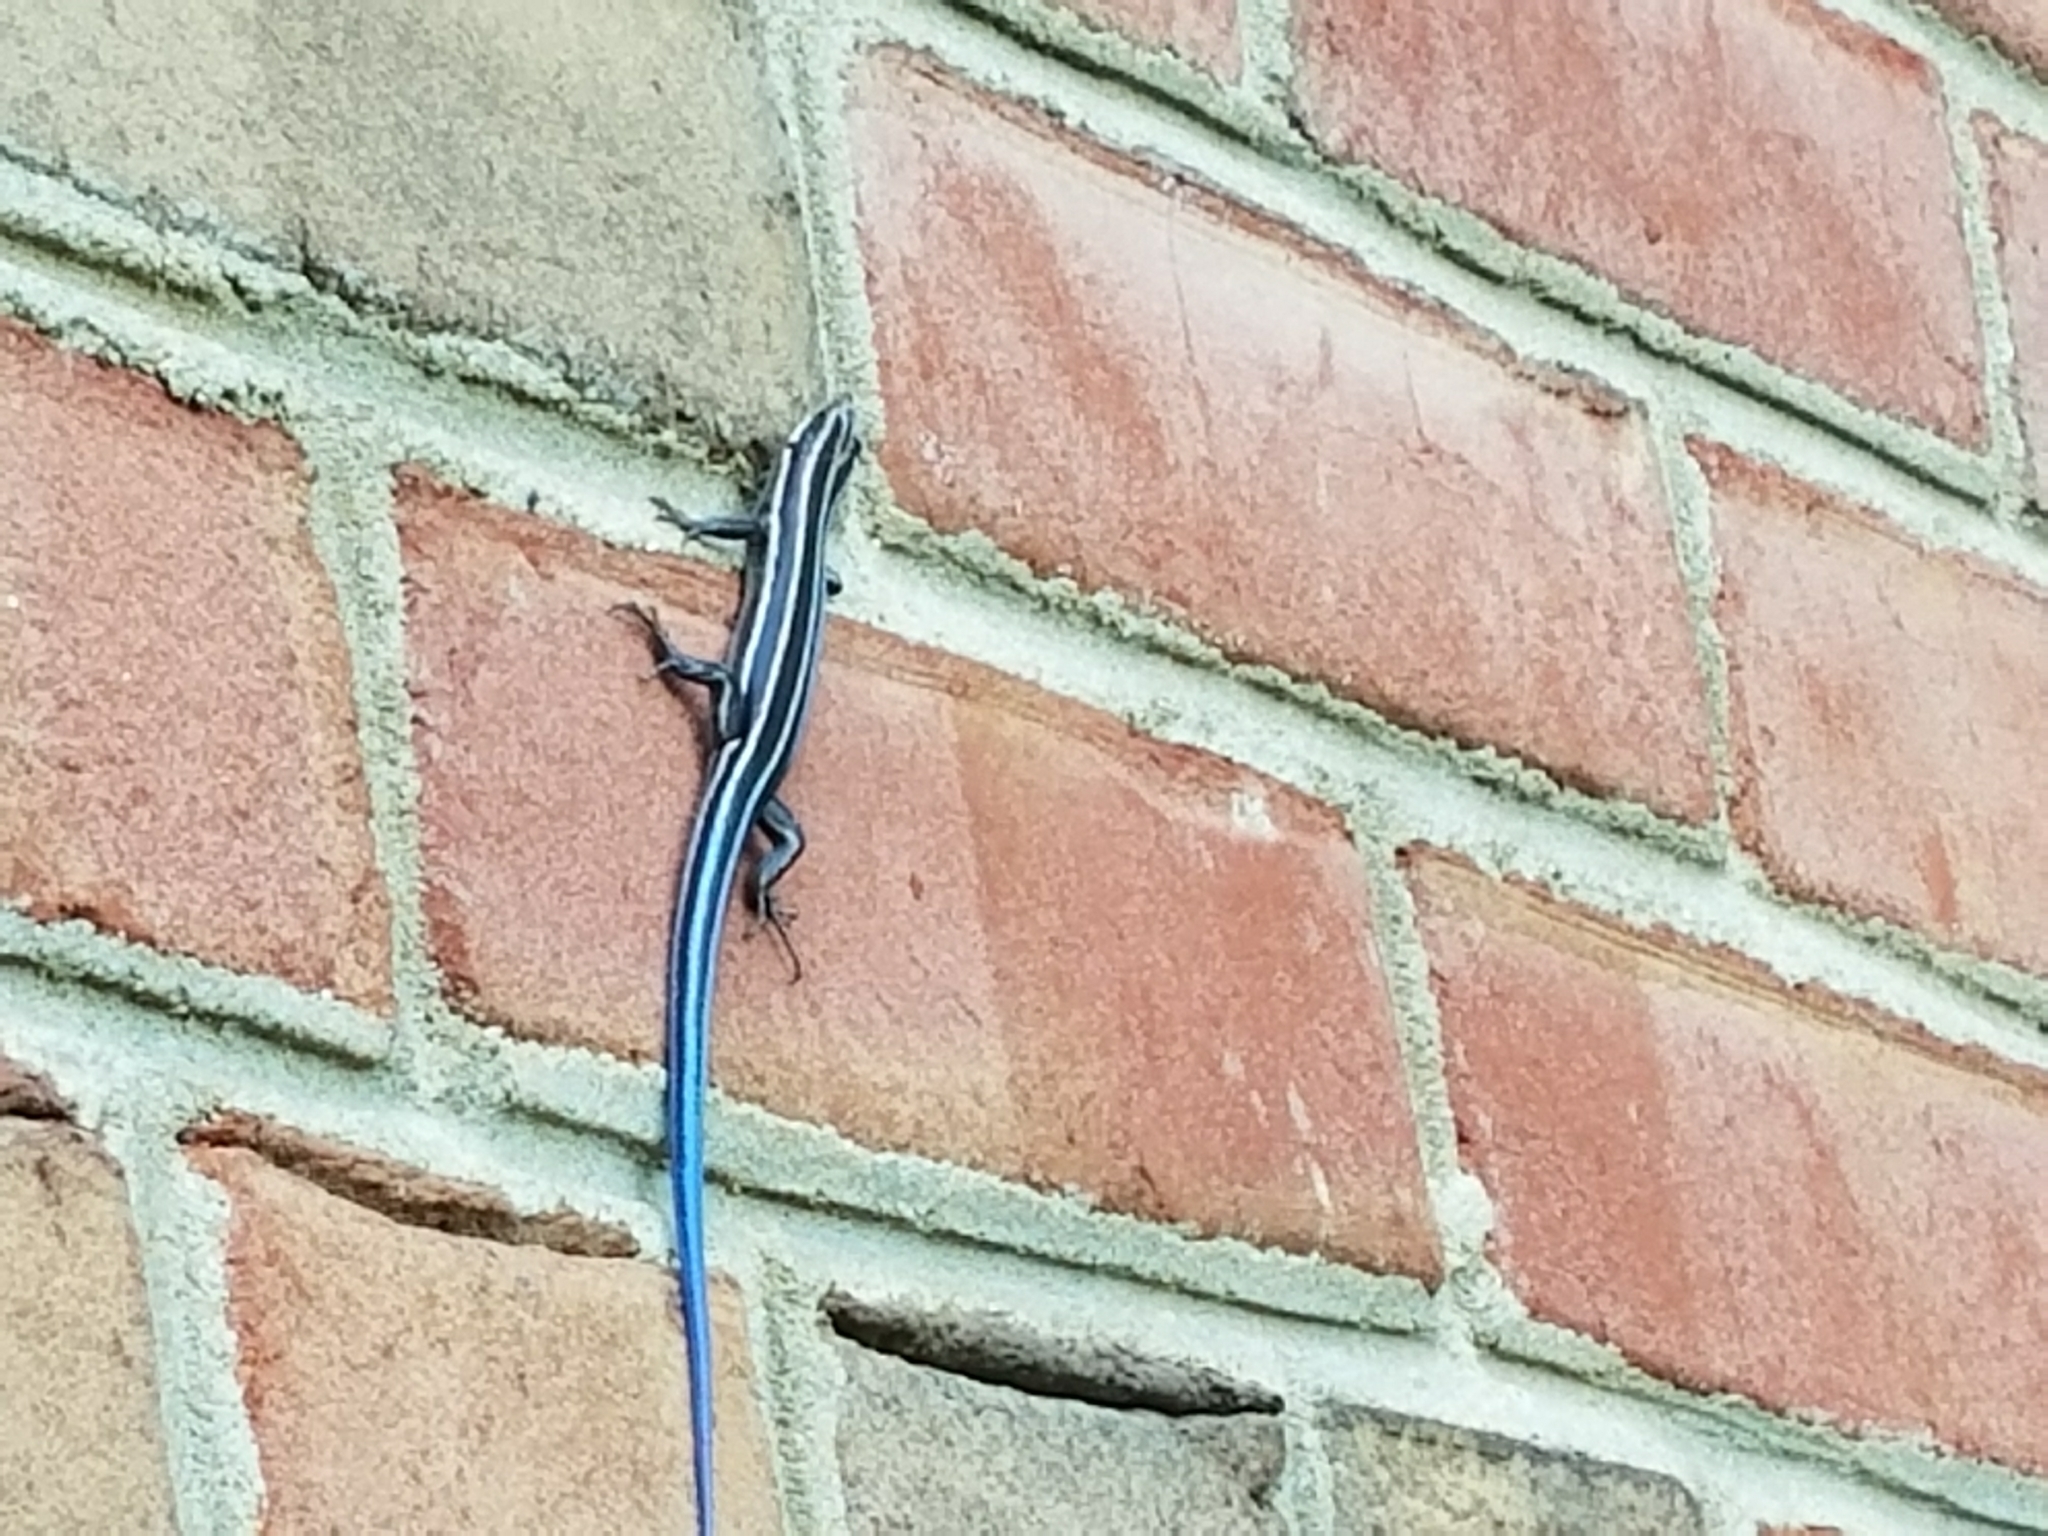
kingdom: Animalia
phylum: Chordata
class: Squamata
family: Scincidae
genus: Plestiodon
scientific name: Plestiodon fasciatus
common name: Five-lined skink
